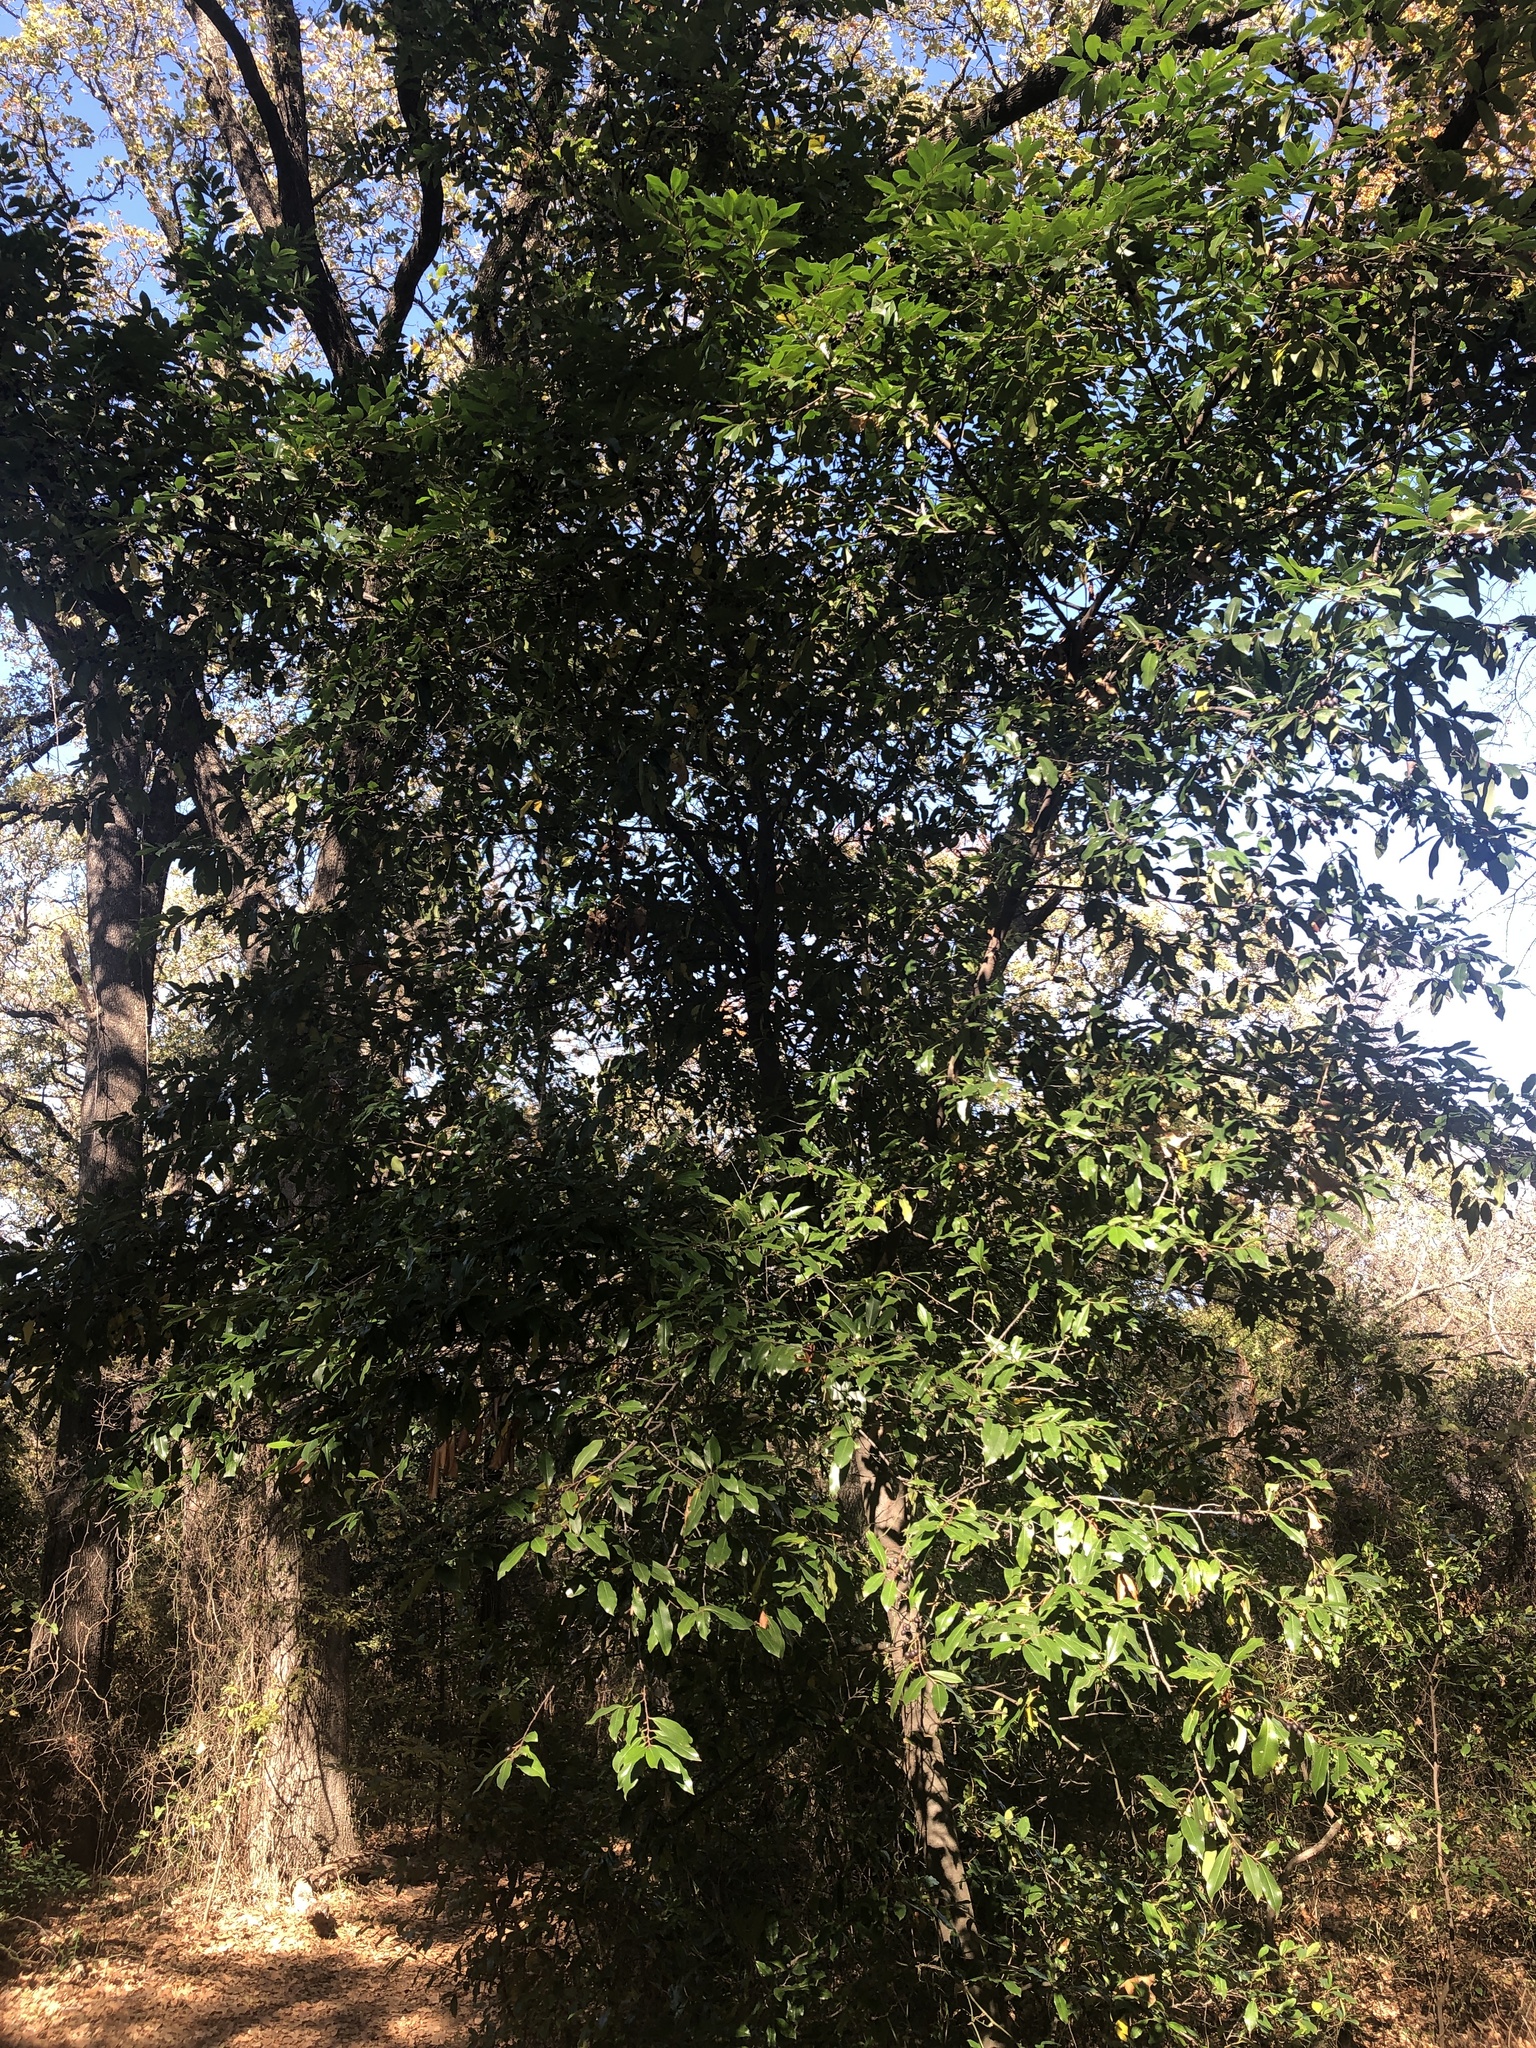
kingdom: Plantae
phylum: Tracheophyta
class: Magnoliopsida
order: Rosales
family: Rosaceae
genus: Prunus
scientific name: Prunus caroliniana
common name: Carolina laurel cherry
